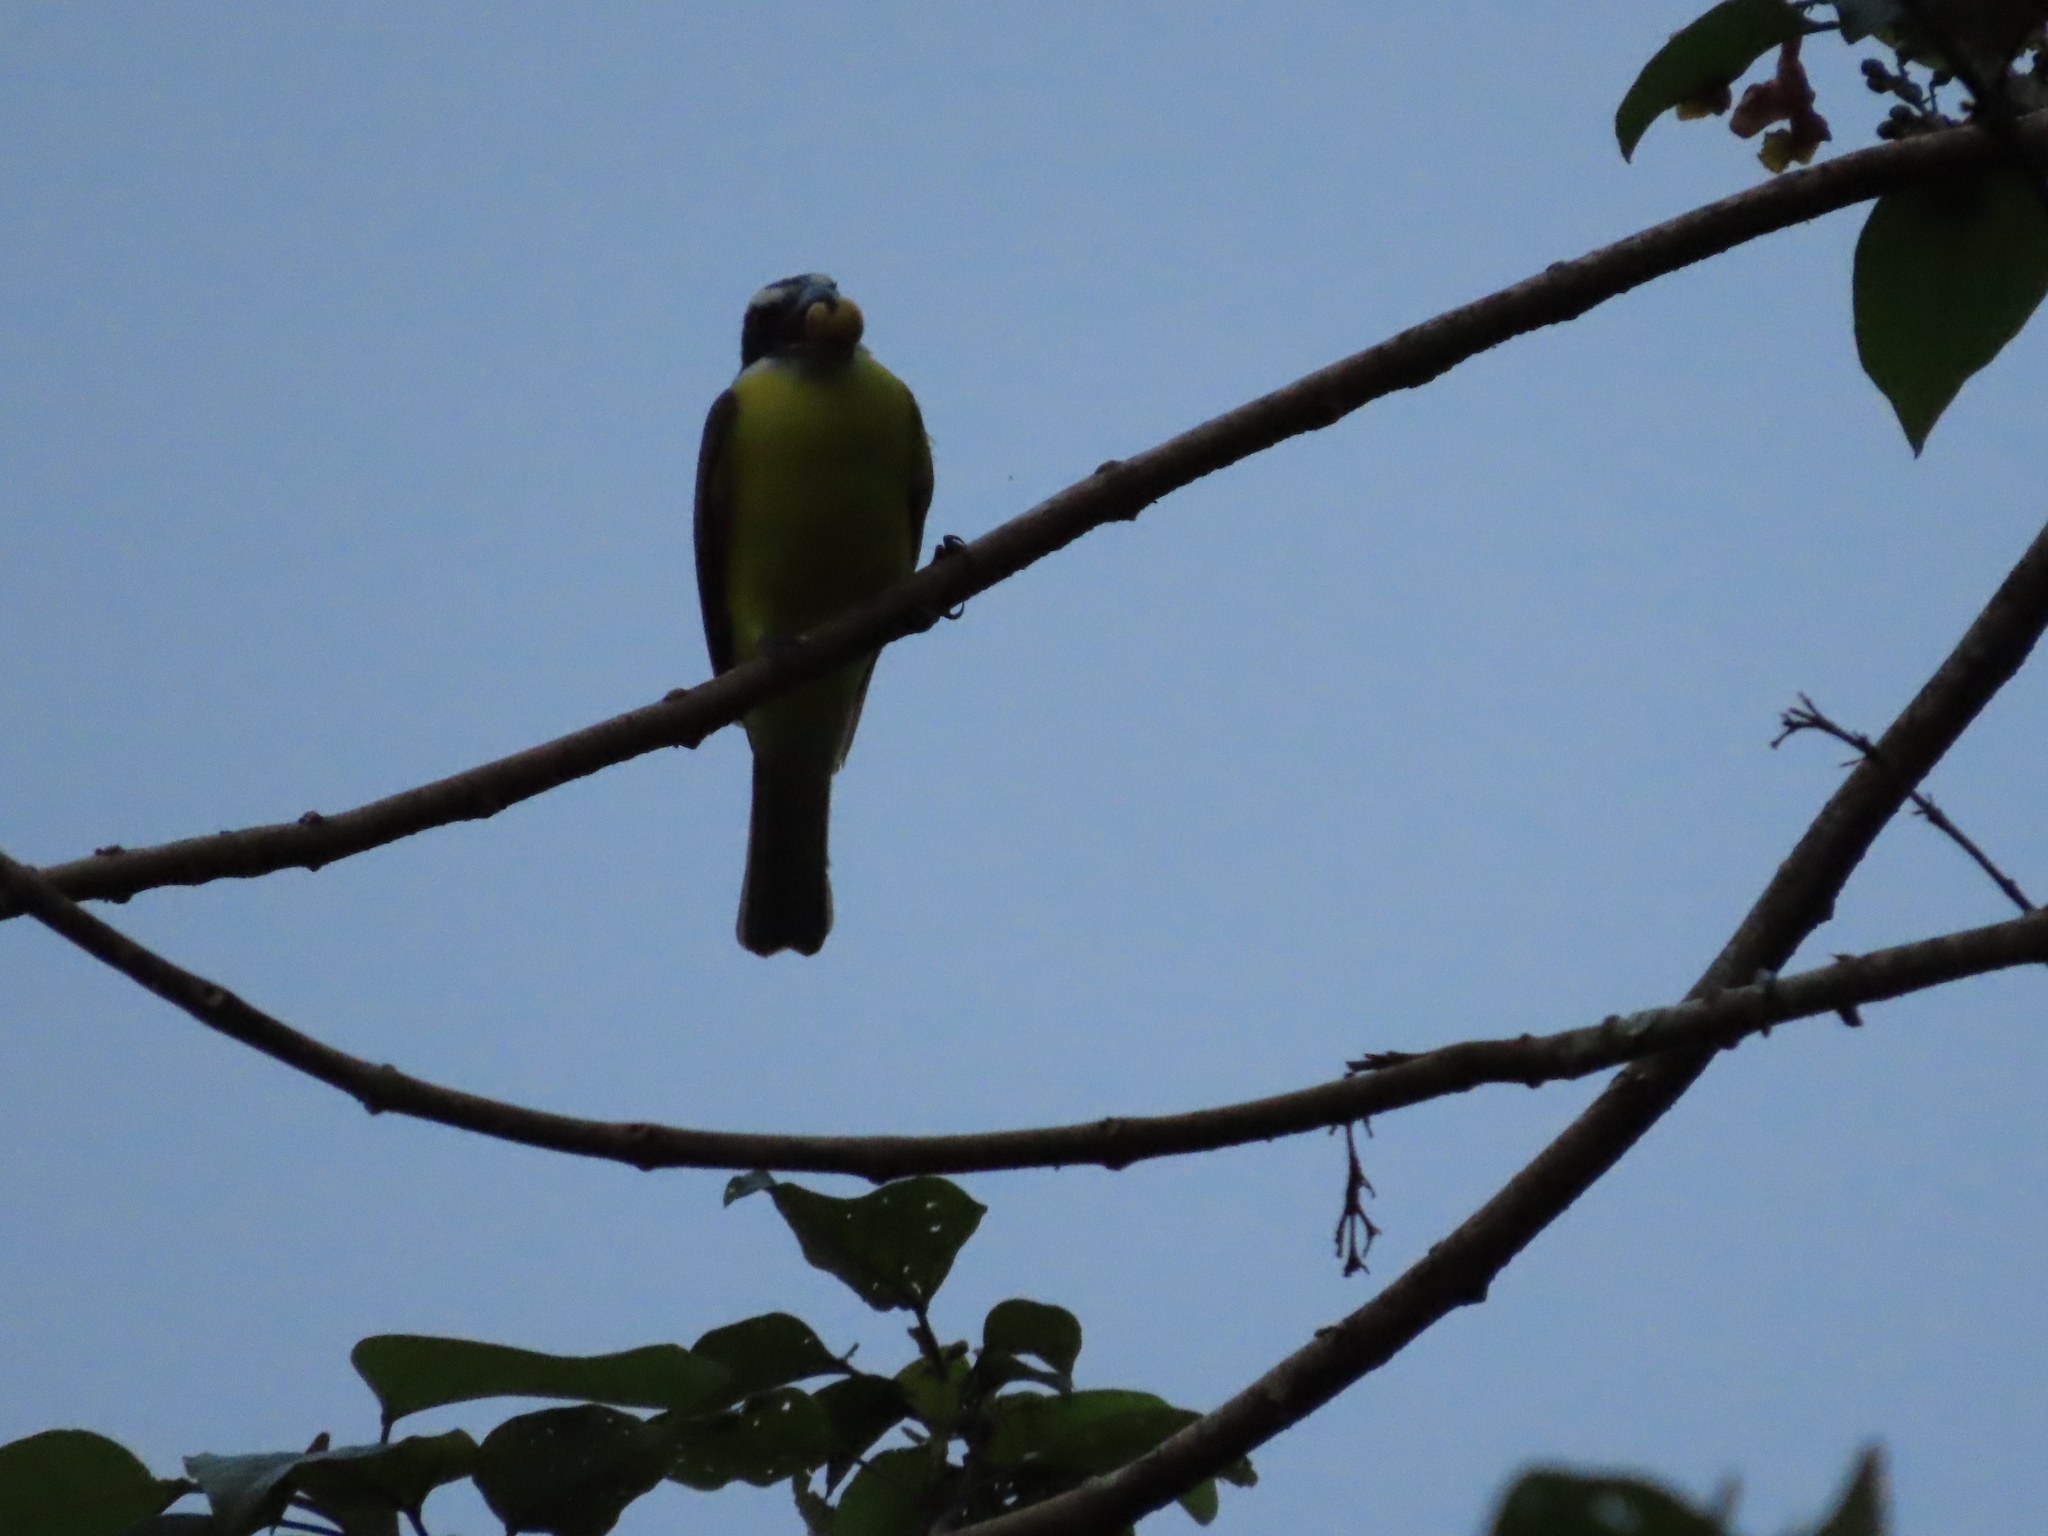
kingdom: Animalia
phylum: Chordata
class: Aves
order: Passeriformes
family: Tyrannidae
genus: Myiozetetes
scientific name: Myiozetetes similis
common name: Social flycatcher
